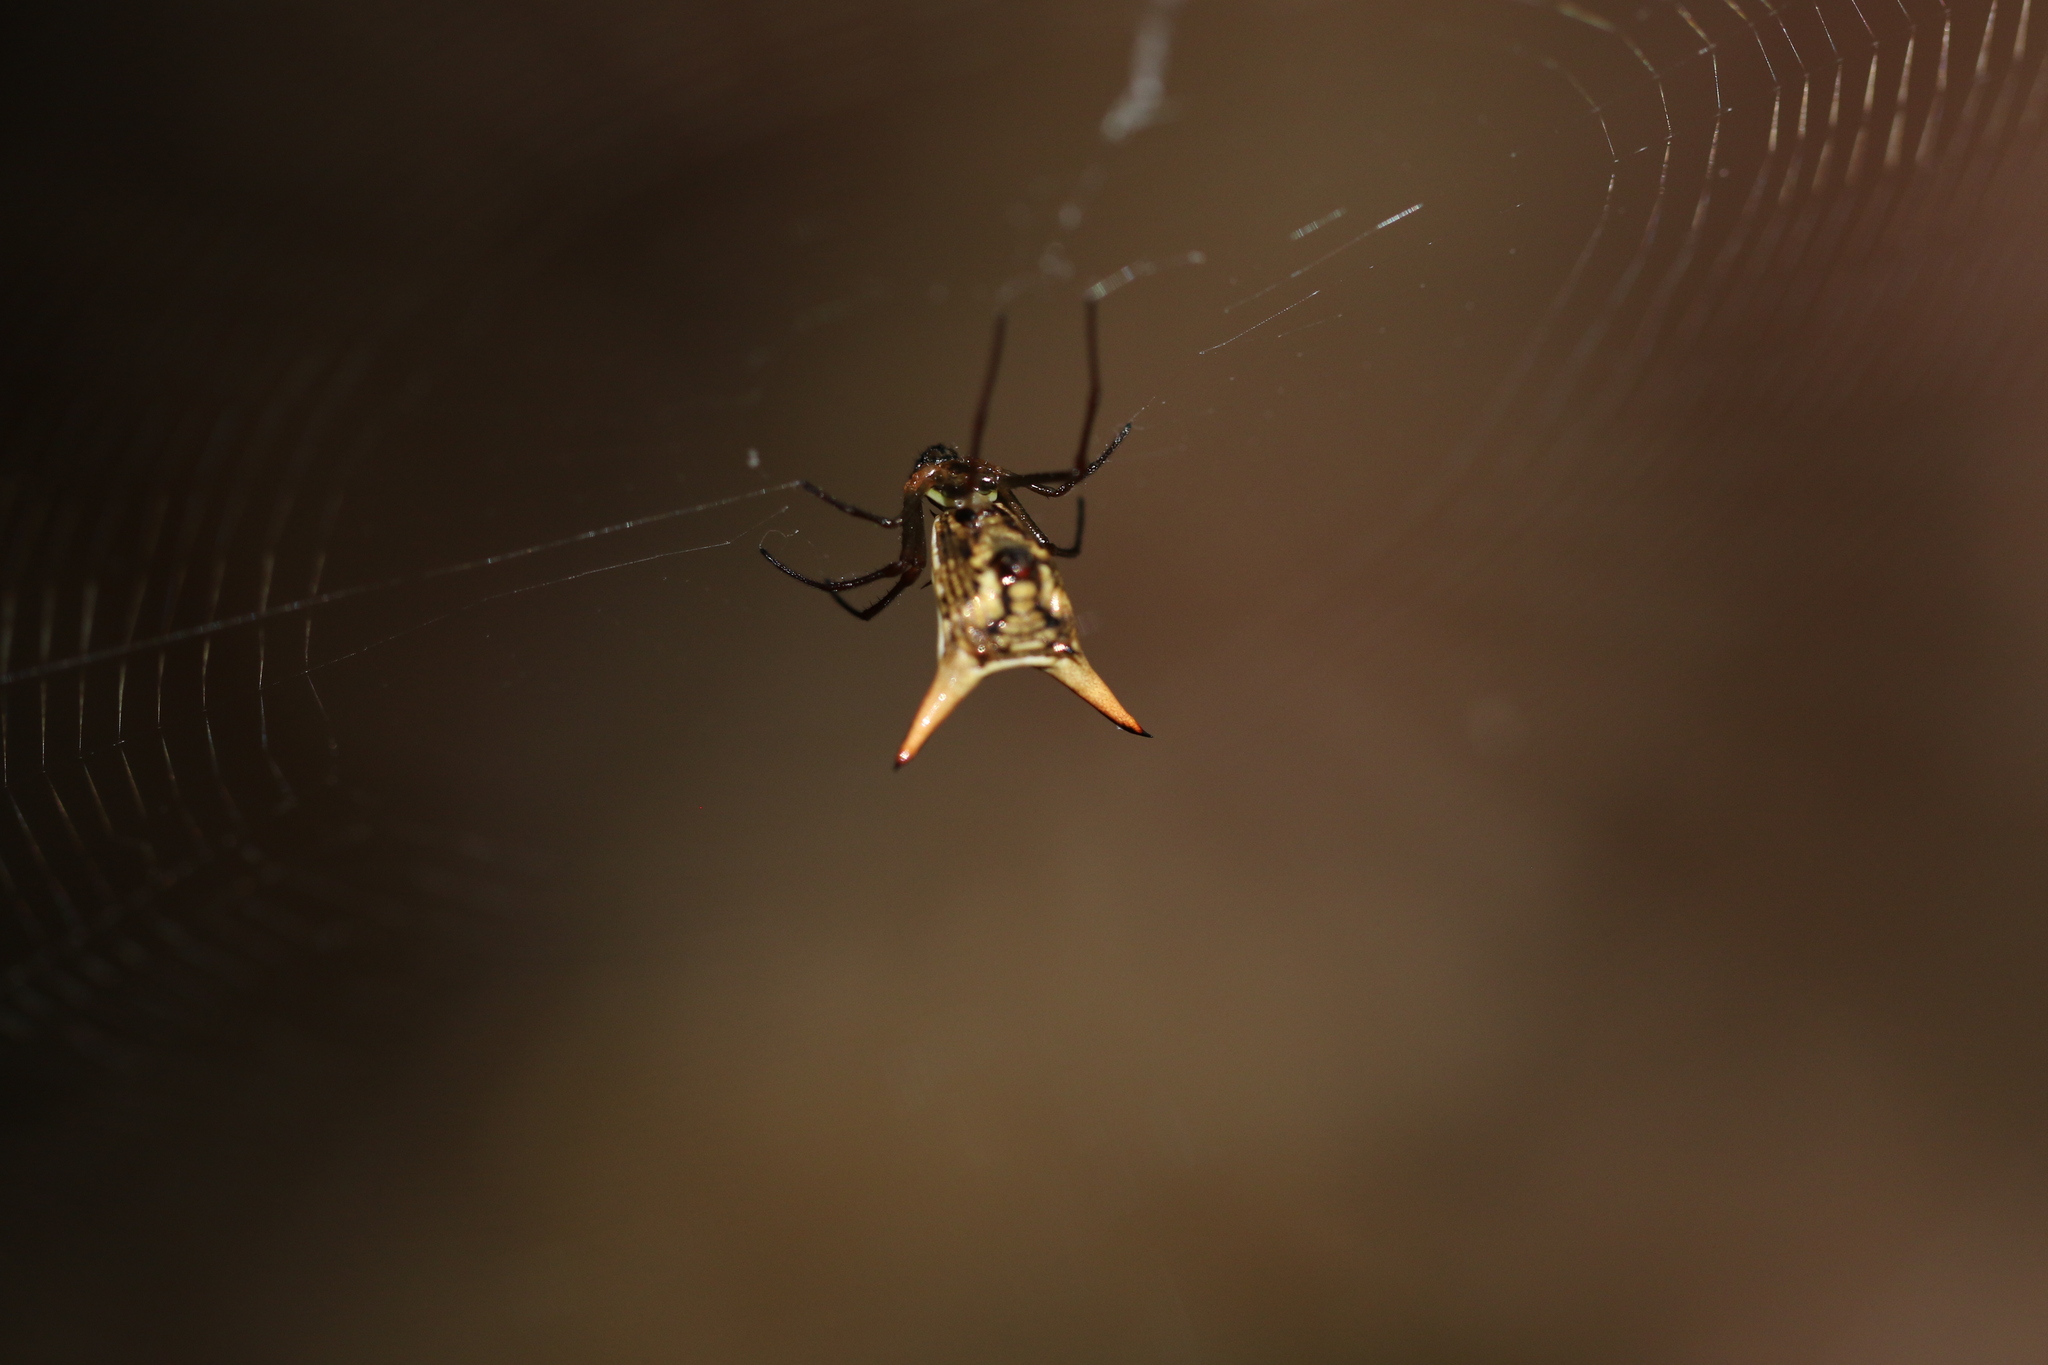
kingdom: Animalia
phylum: Arthropoda
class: Arachnida
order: Araneae
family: Araneidae
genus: Micrathena
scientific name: Micrathena sanctispiritus
